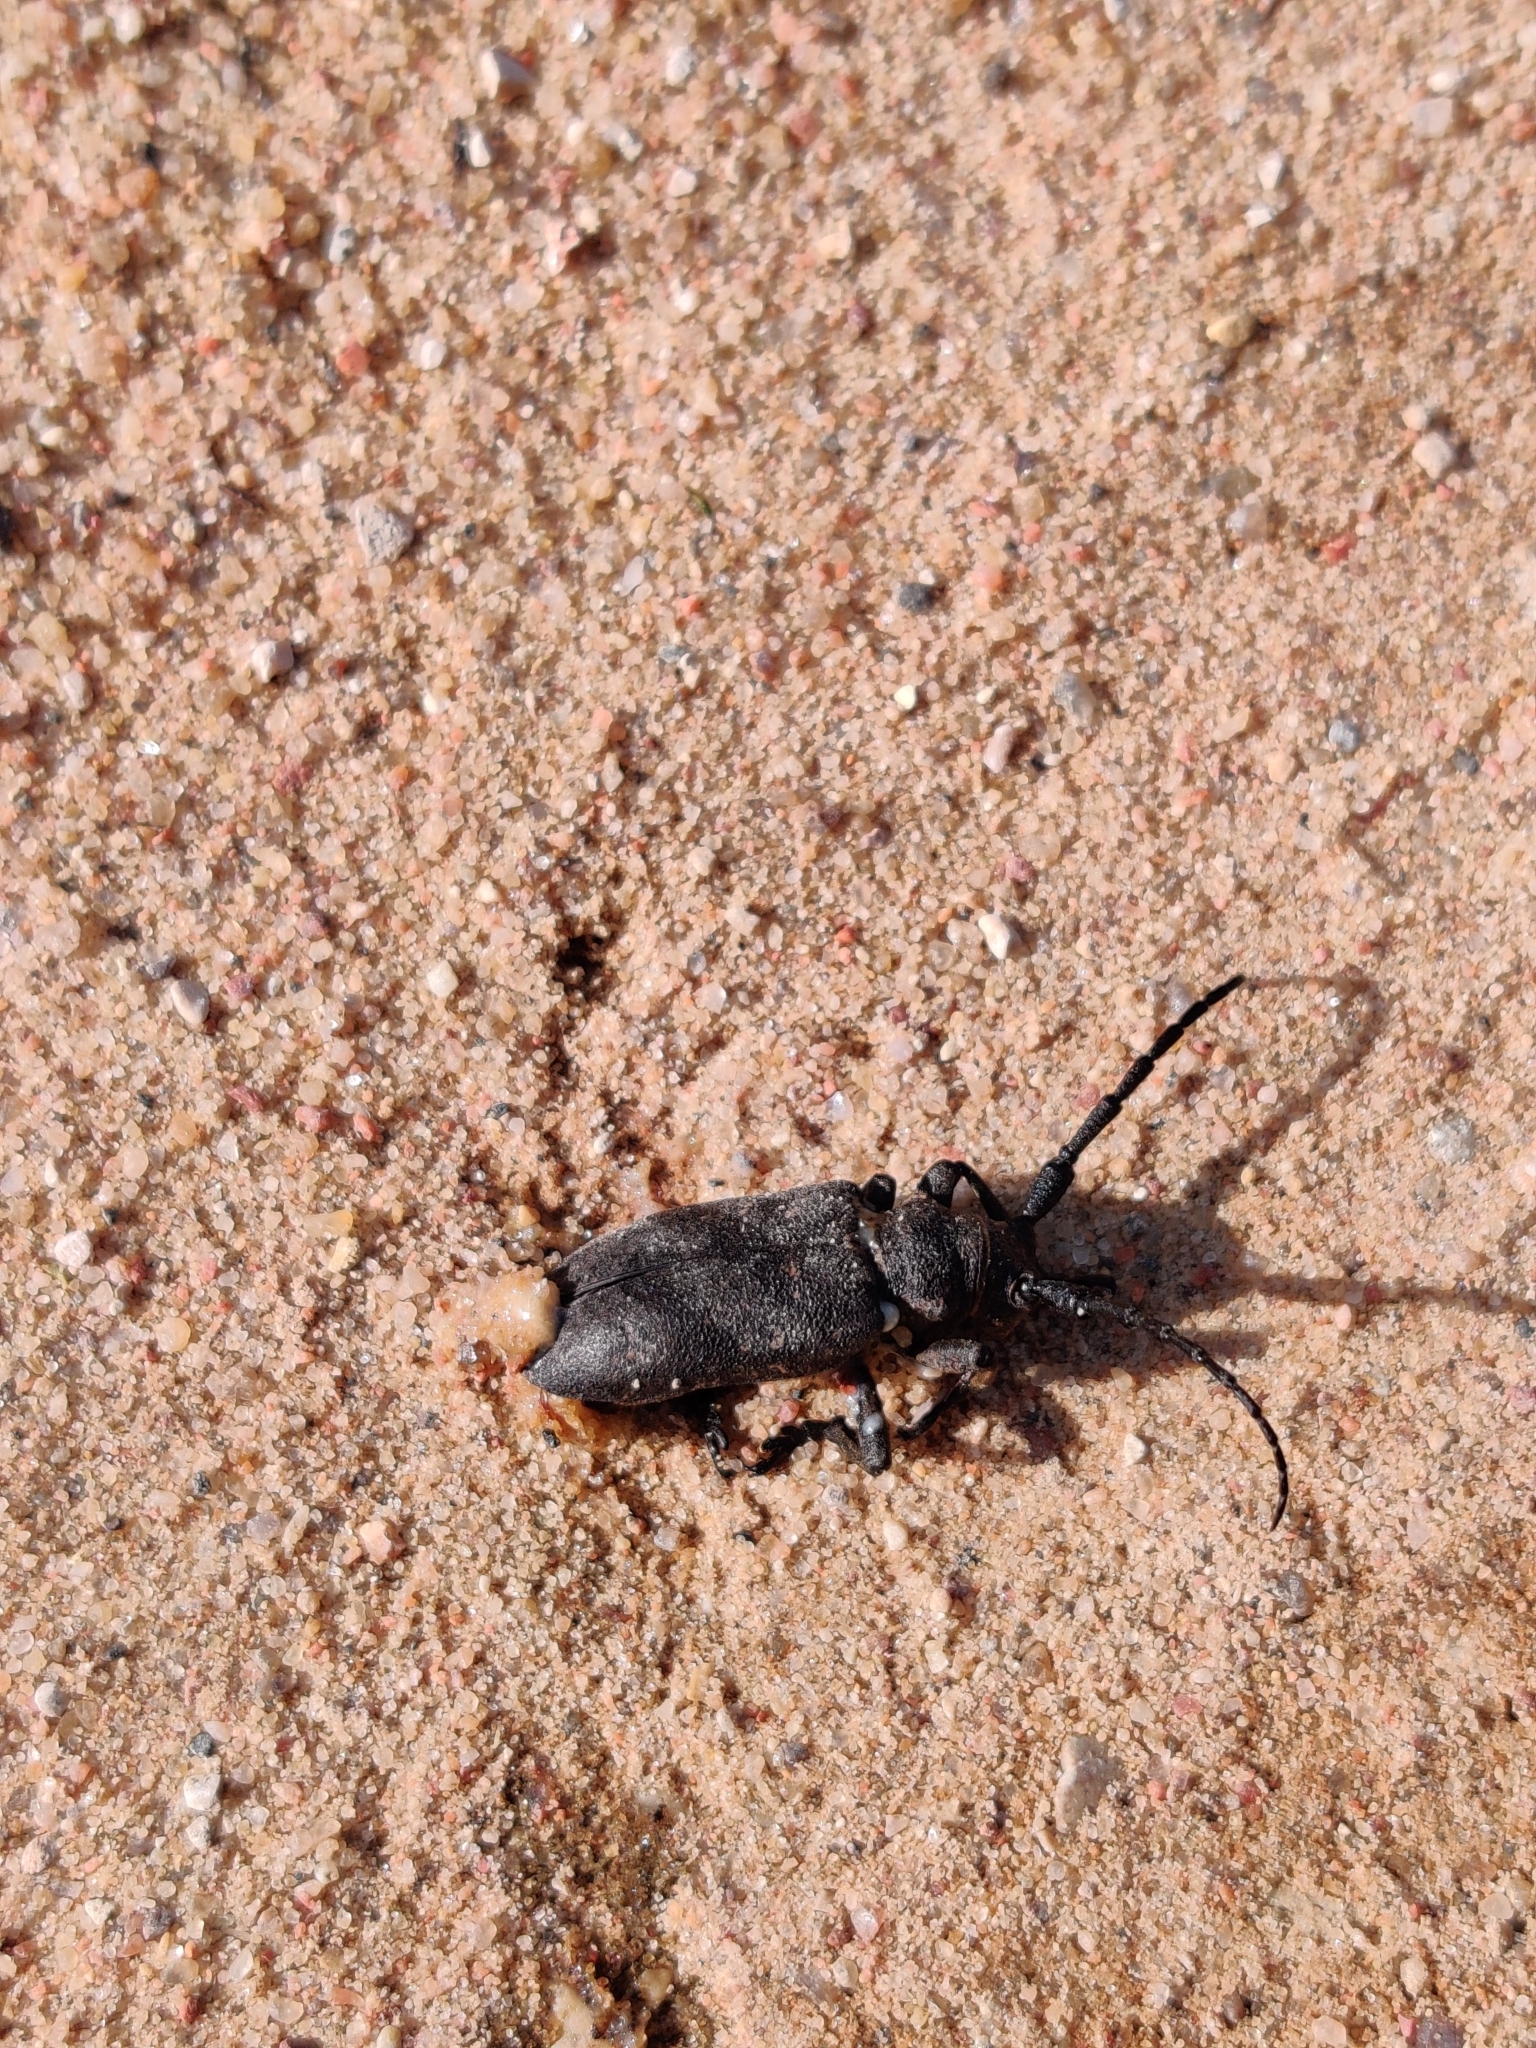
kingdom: Animalia
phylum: Arthropoda
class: Insecta
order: Coleoptera
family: Cerambycidae
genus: Lamia
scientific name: Lamia textor
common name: Weaver beetle
